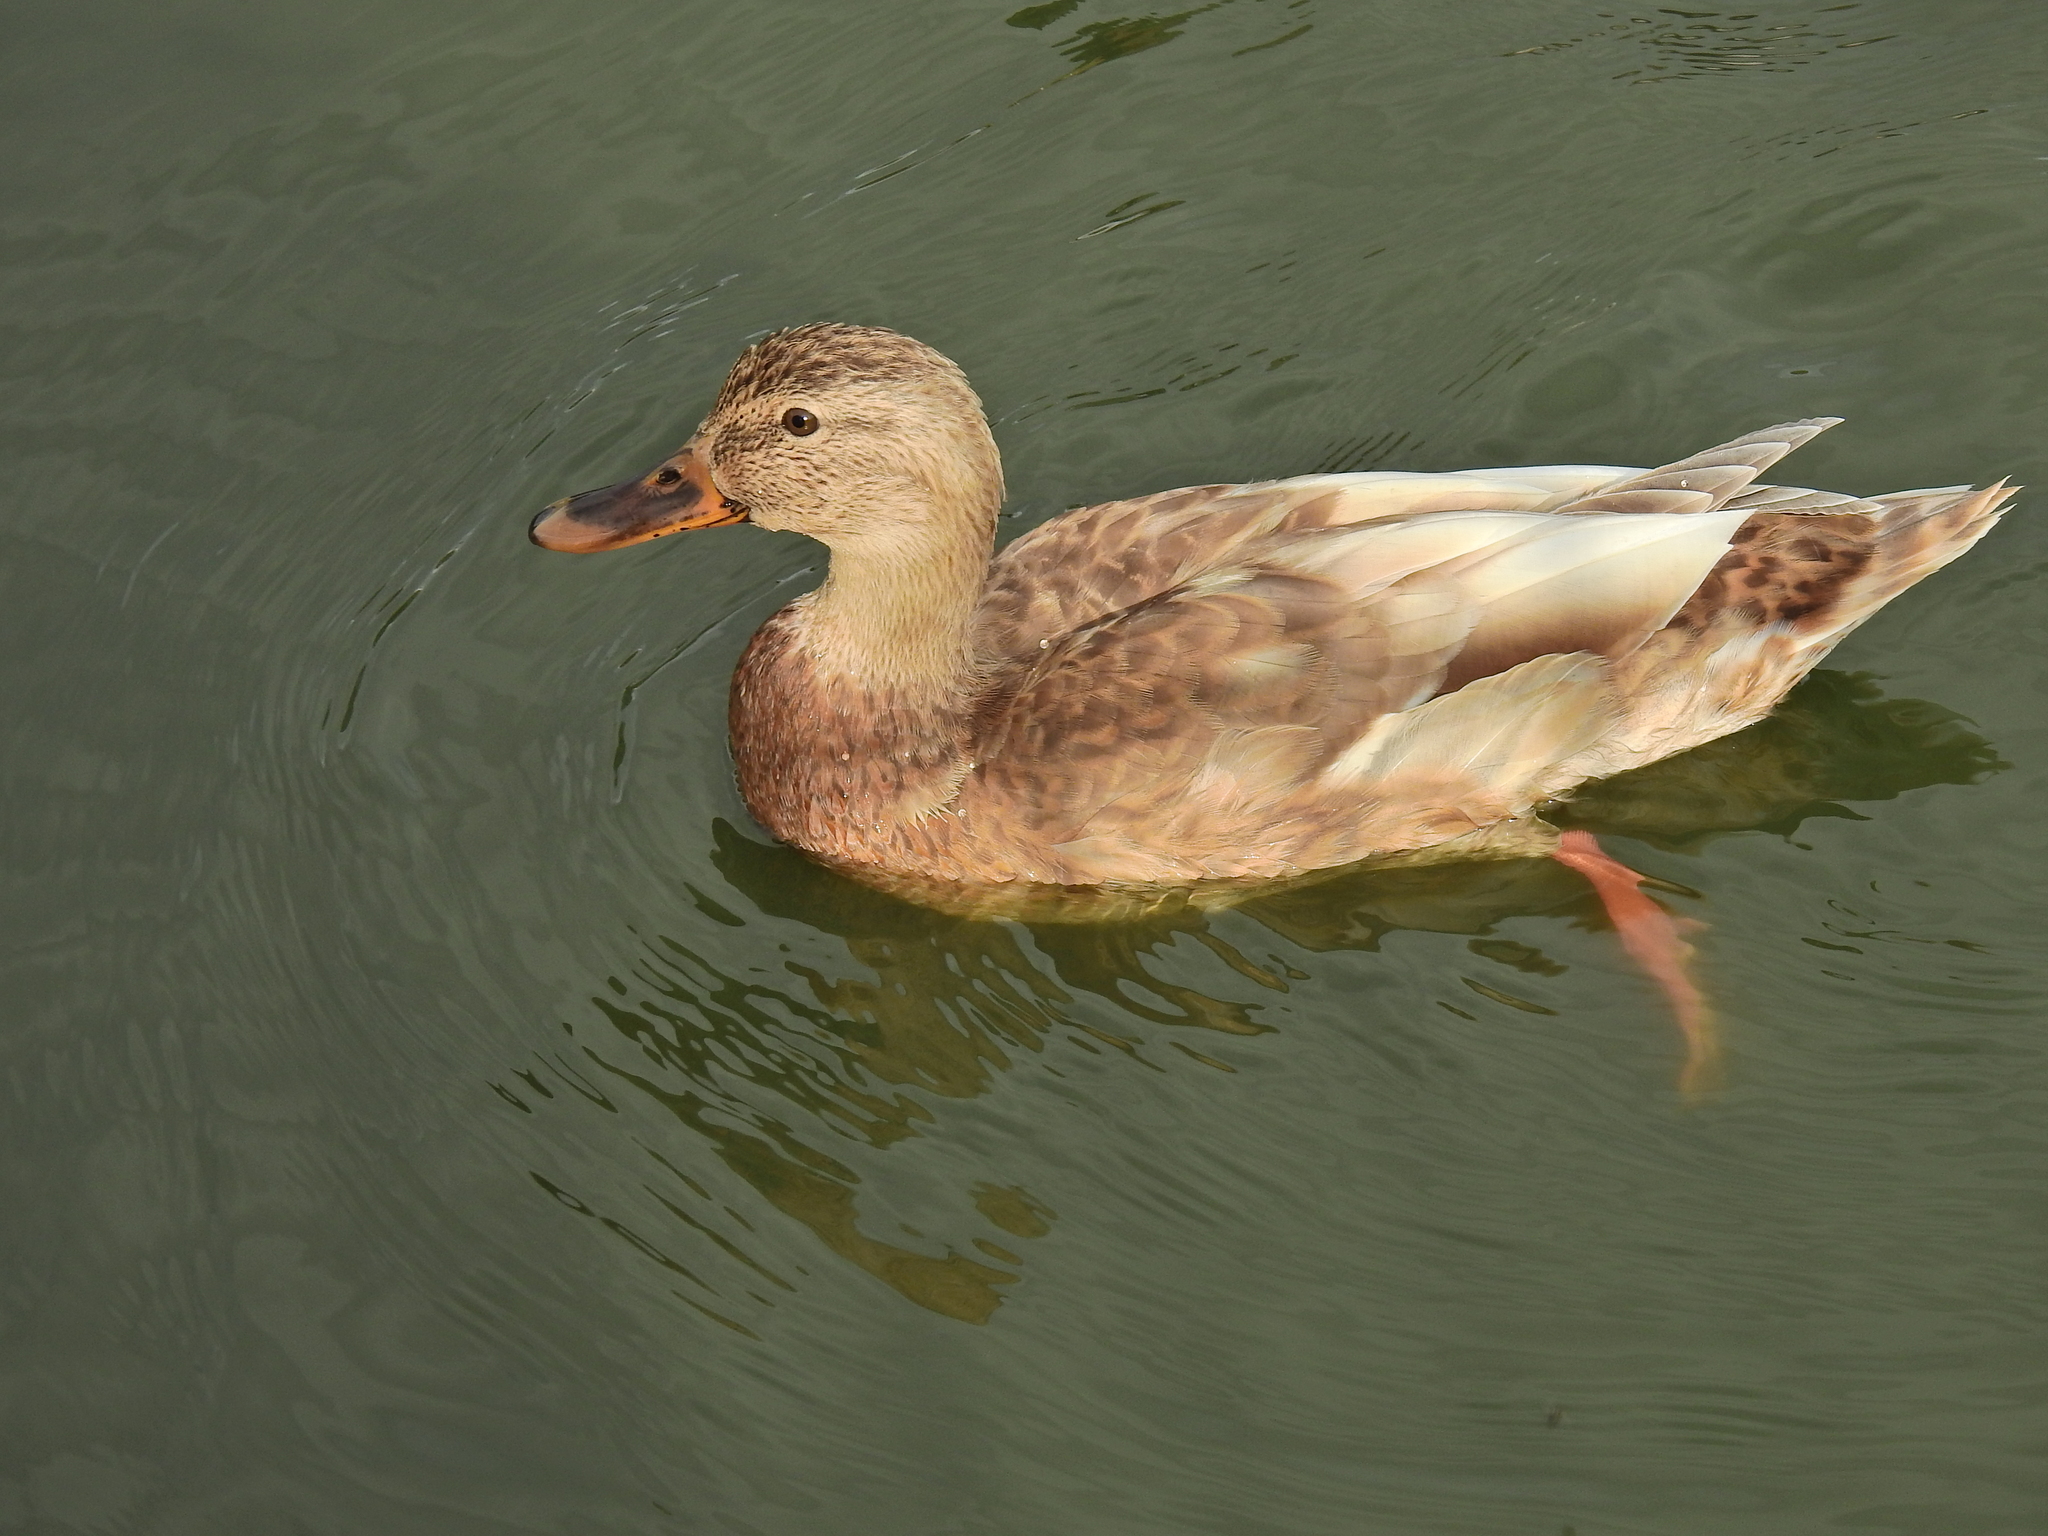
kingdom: Animalia
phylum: Chordata
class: Aves
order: Anseriformes
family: Anatidae
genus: Anas
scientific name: Anas platyrhynchos
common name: Mallard
